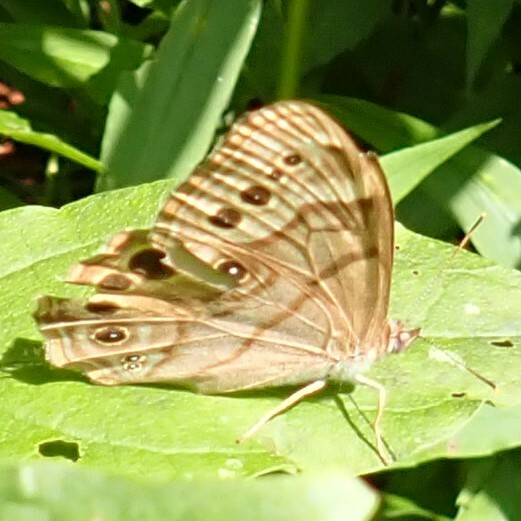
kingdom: Animalia
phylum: Arthropoda
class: Insecta
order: Lepidoptera
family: Nymphalidae
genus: Lethe
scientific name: Lethe anthedon
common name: Northern pearly-eye
